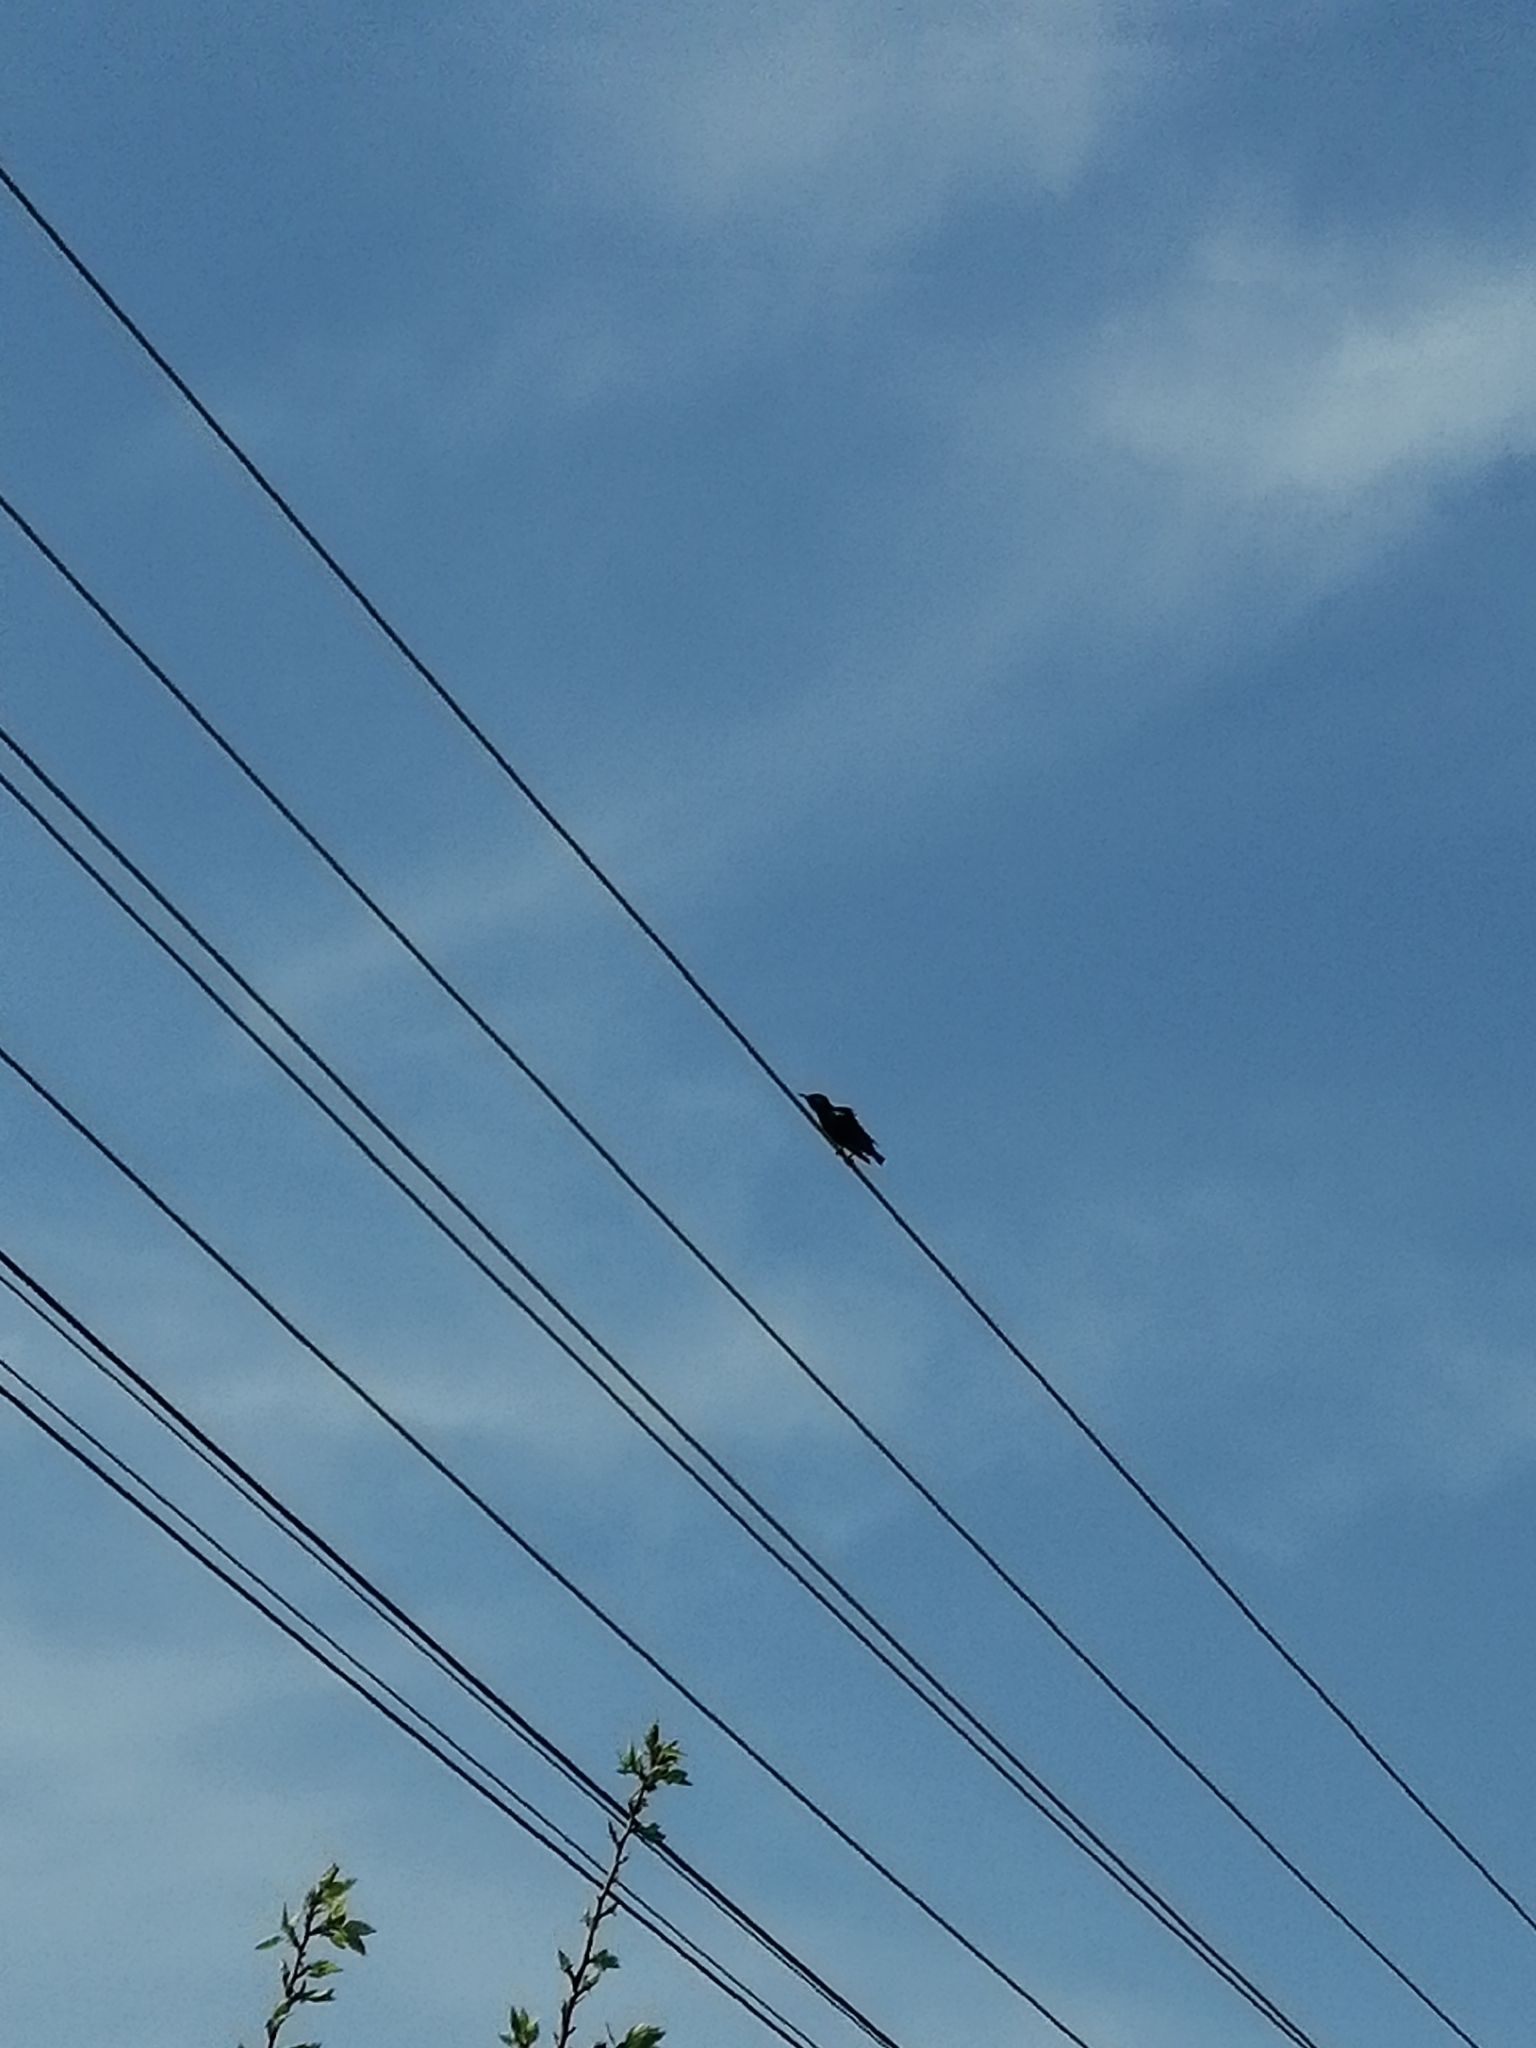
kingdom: Animalia
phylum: Chordata
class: Aves
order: Passeriformes
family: Sturnidae
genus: Sturnus
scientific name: Sturnus vulgaris
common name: Common starling
